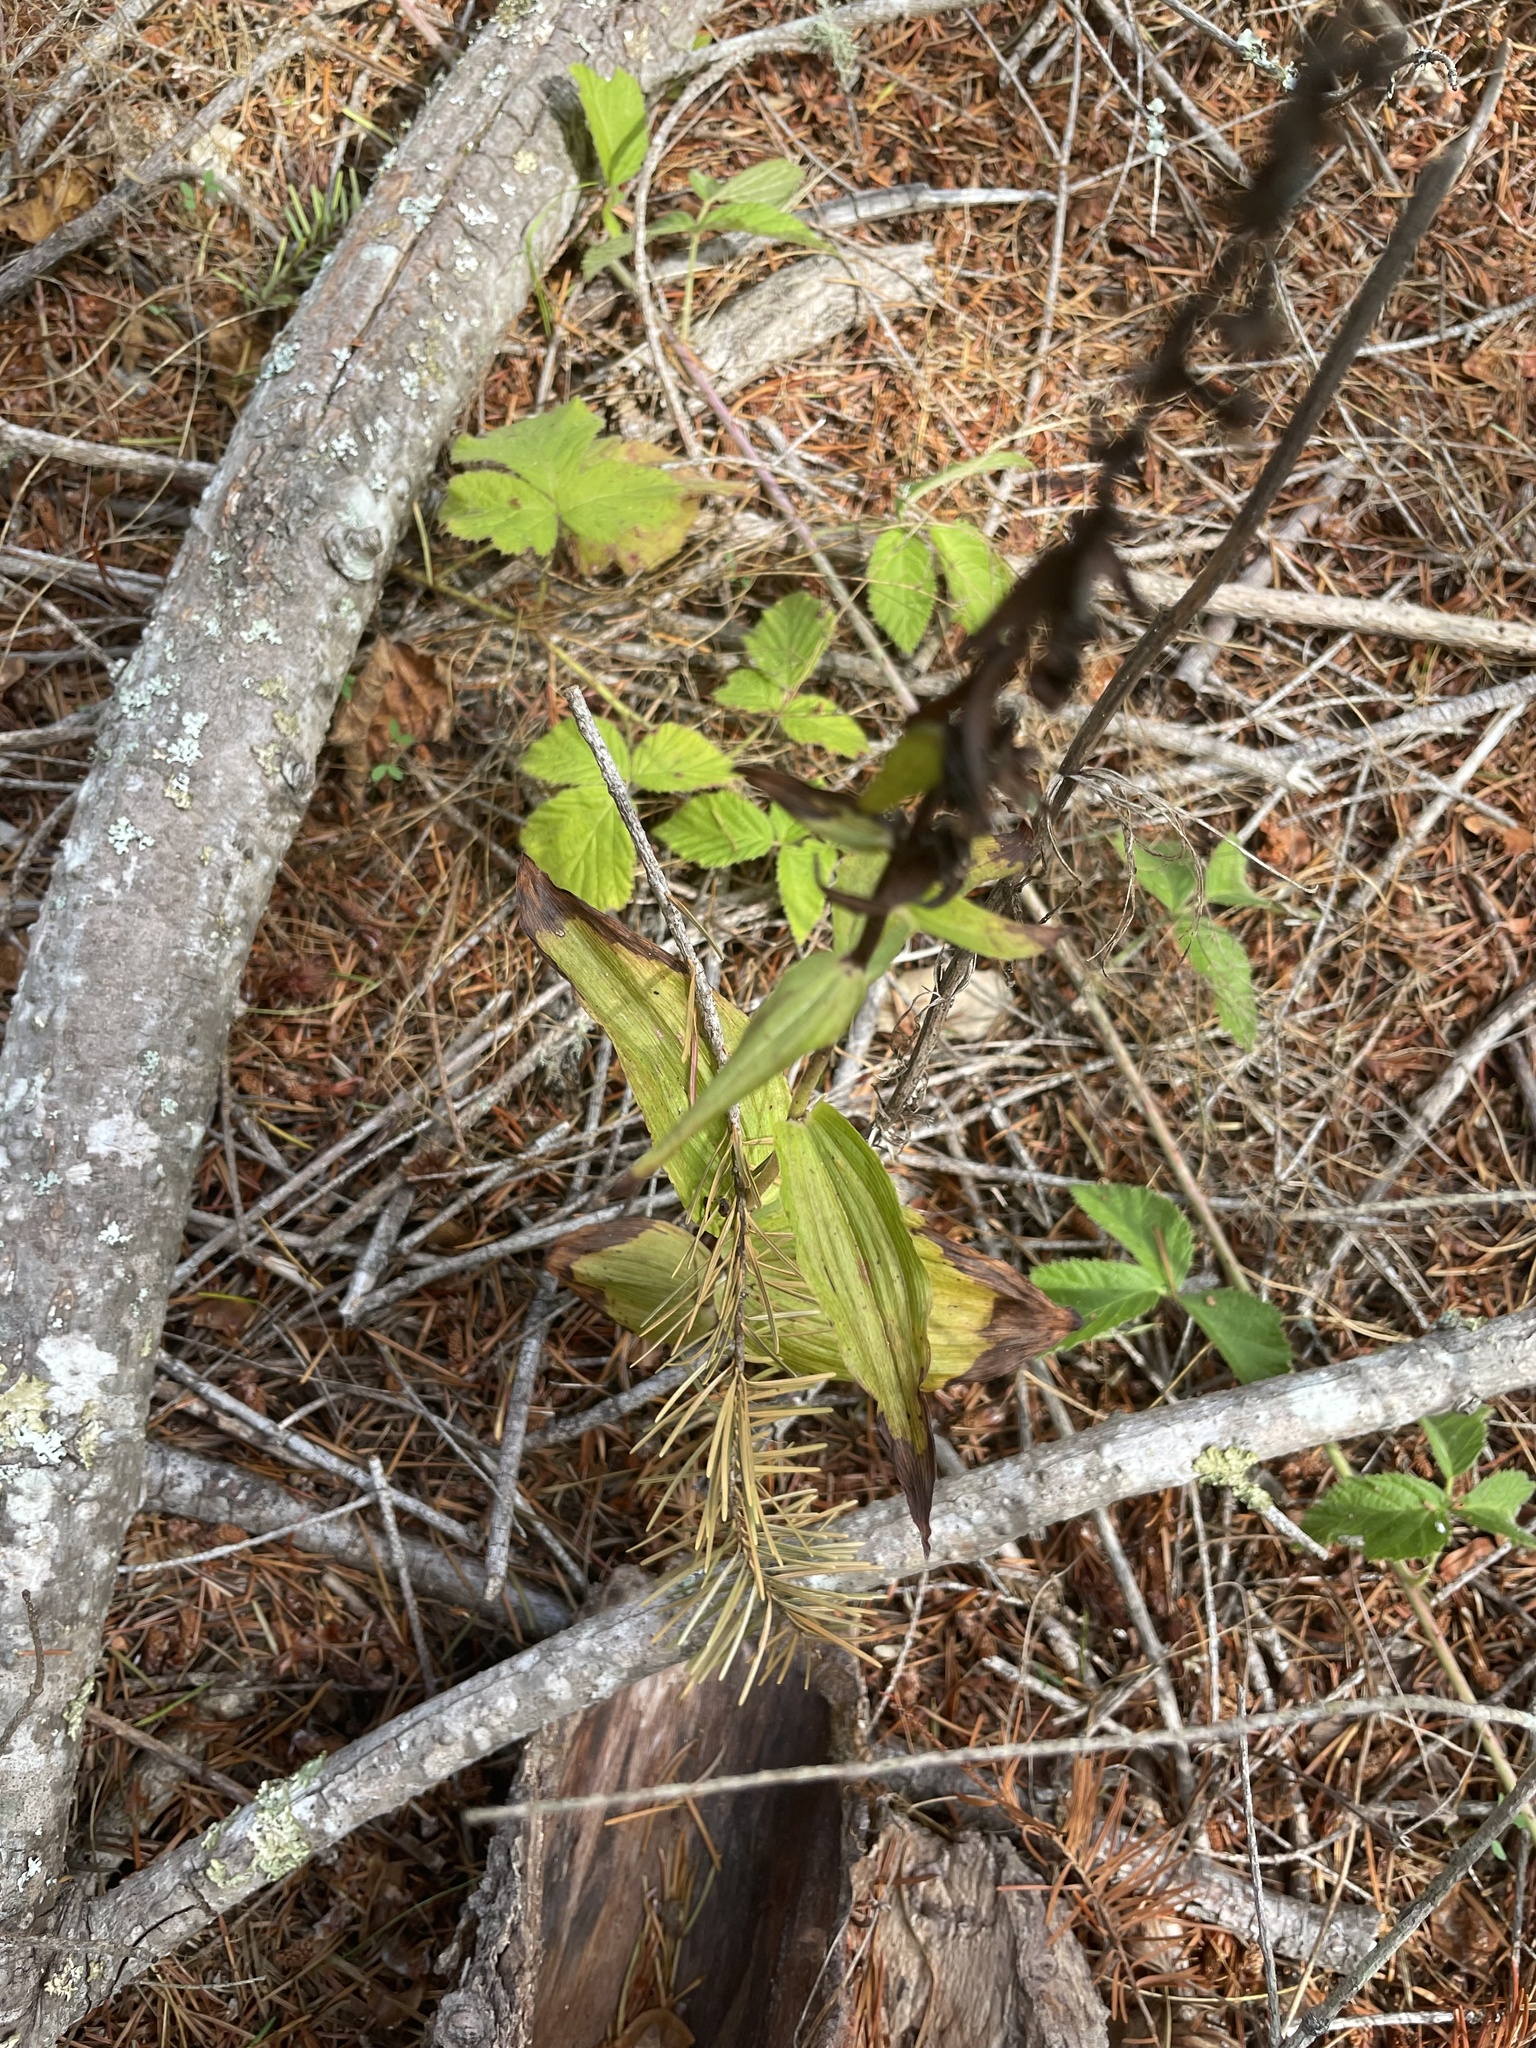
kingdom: Plantae
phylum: Tracheophyta
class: Liliopsida
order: Asparagales
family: Orchidaceae
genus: Epipactis
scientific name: Epipactis helleborine
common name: Broad-leaved helleborine
